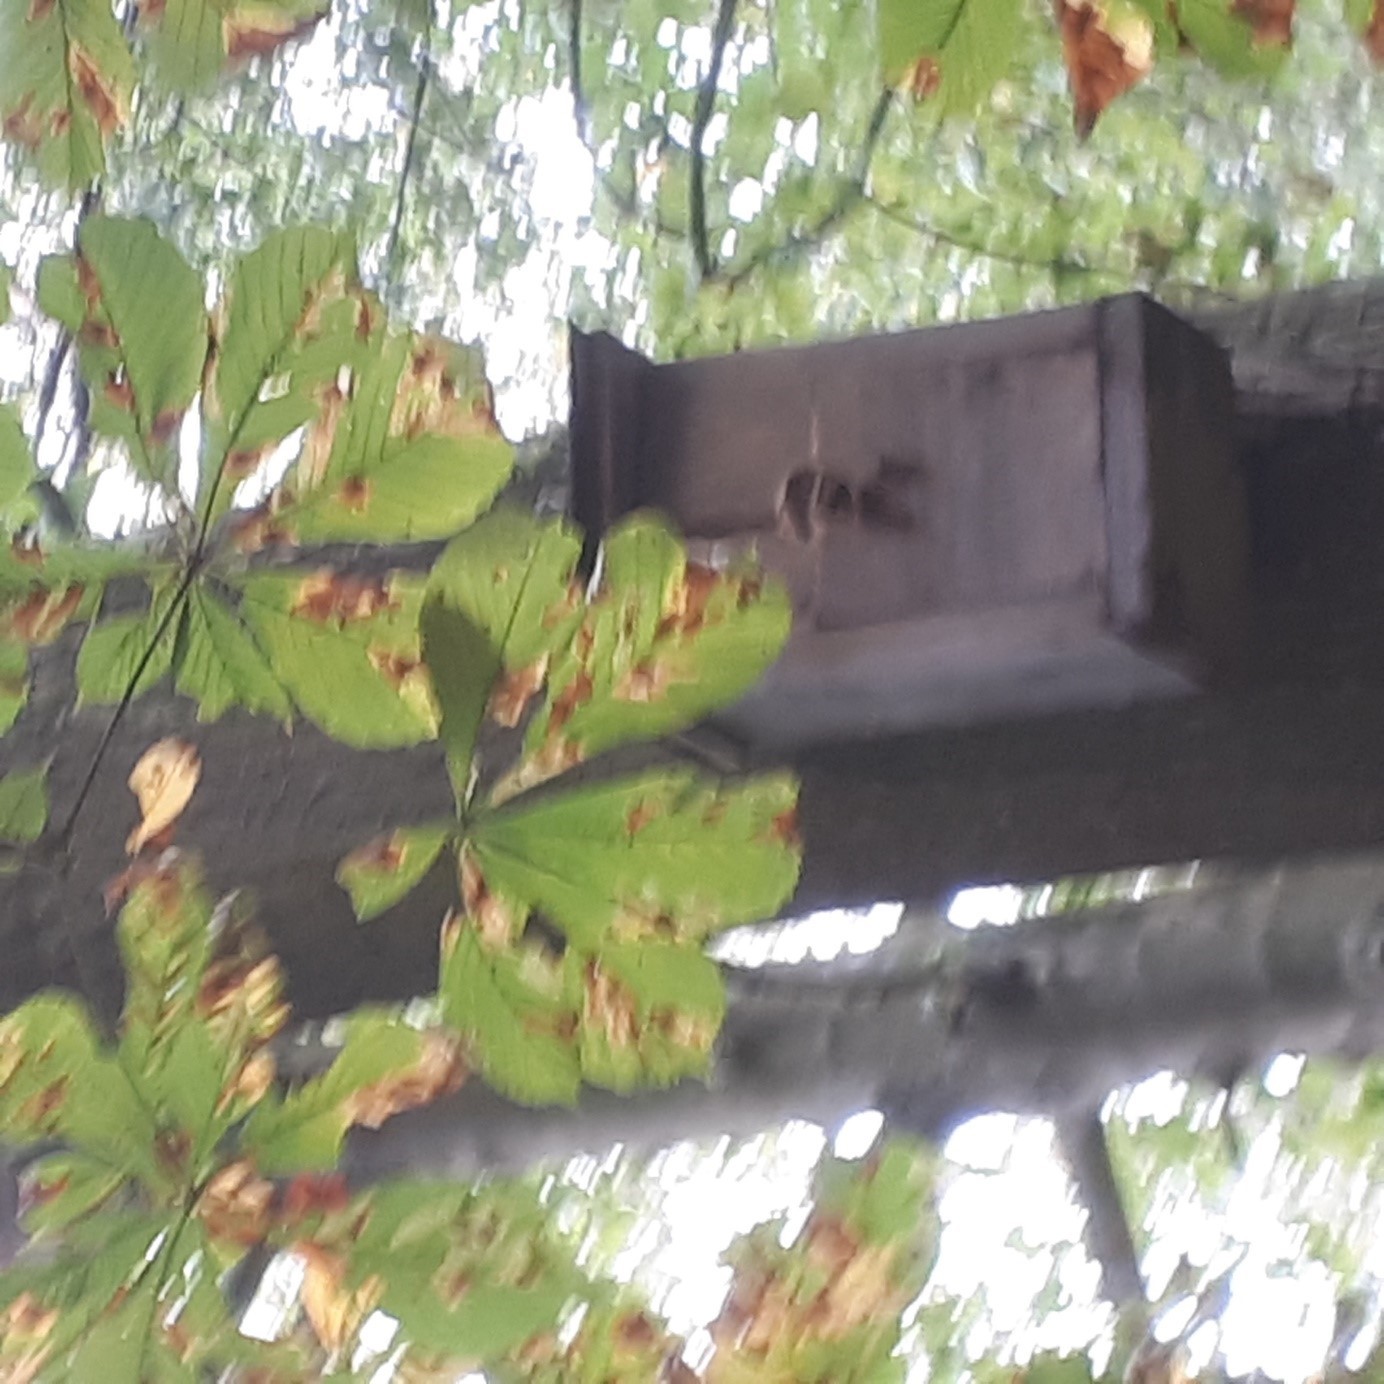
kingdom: Animalia
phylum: Arthropoda
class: Insecta
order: Hymenoptera
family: Vespidae
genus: Vespa
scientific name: Vespa crabro
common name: Hornet
